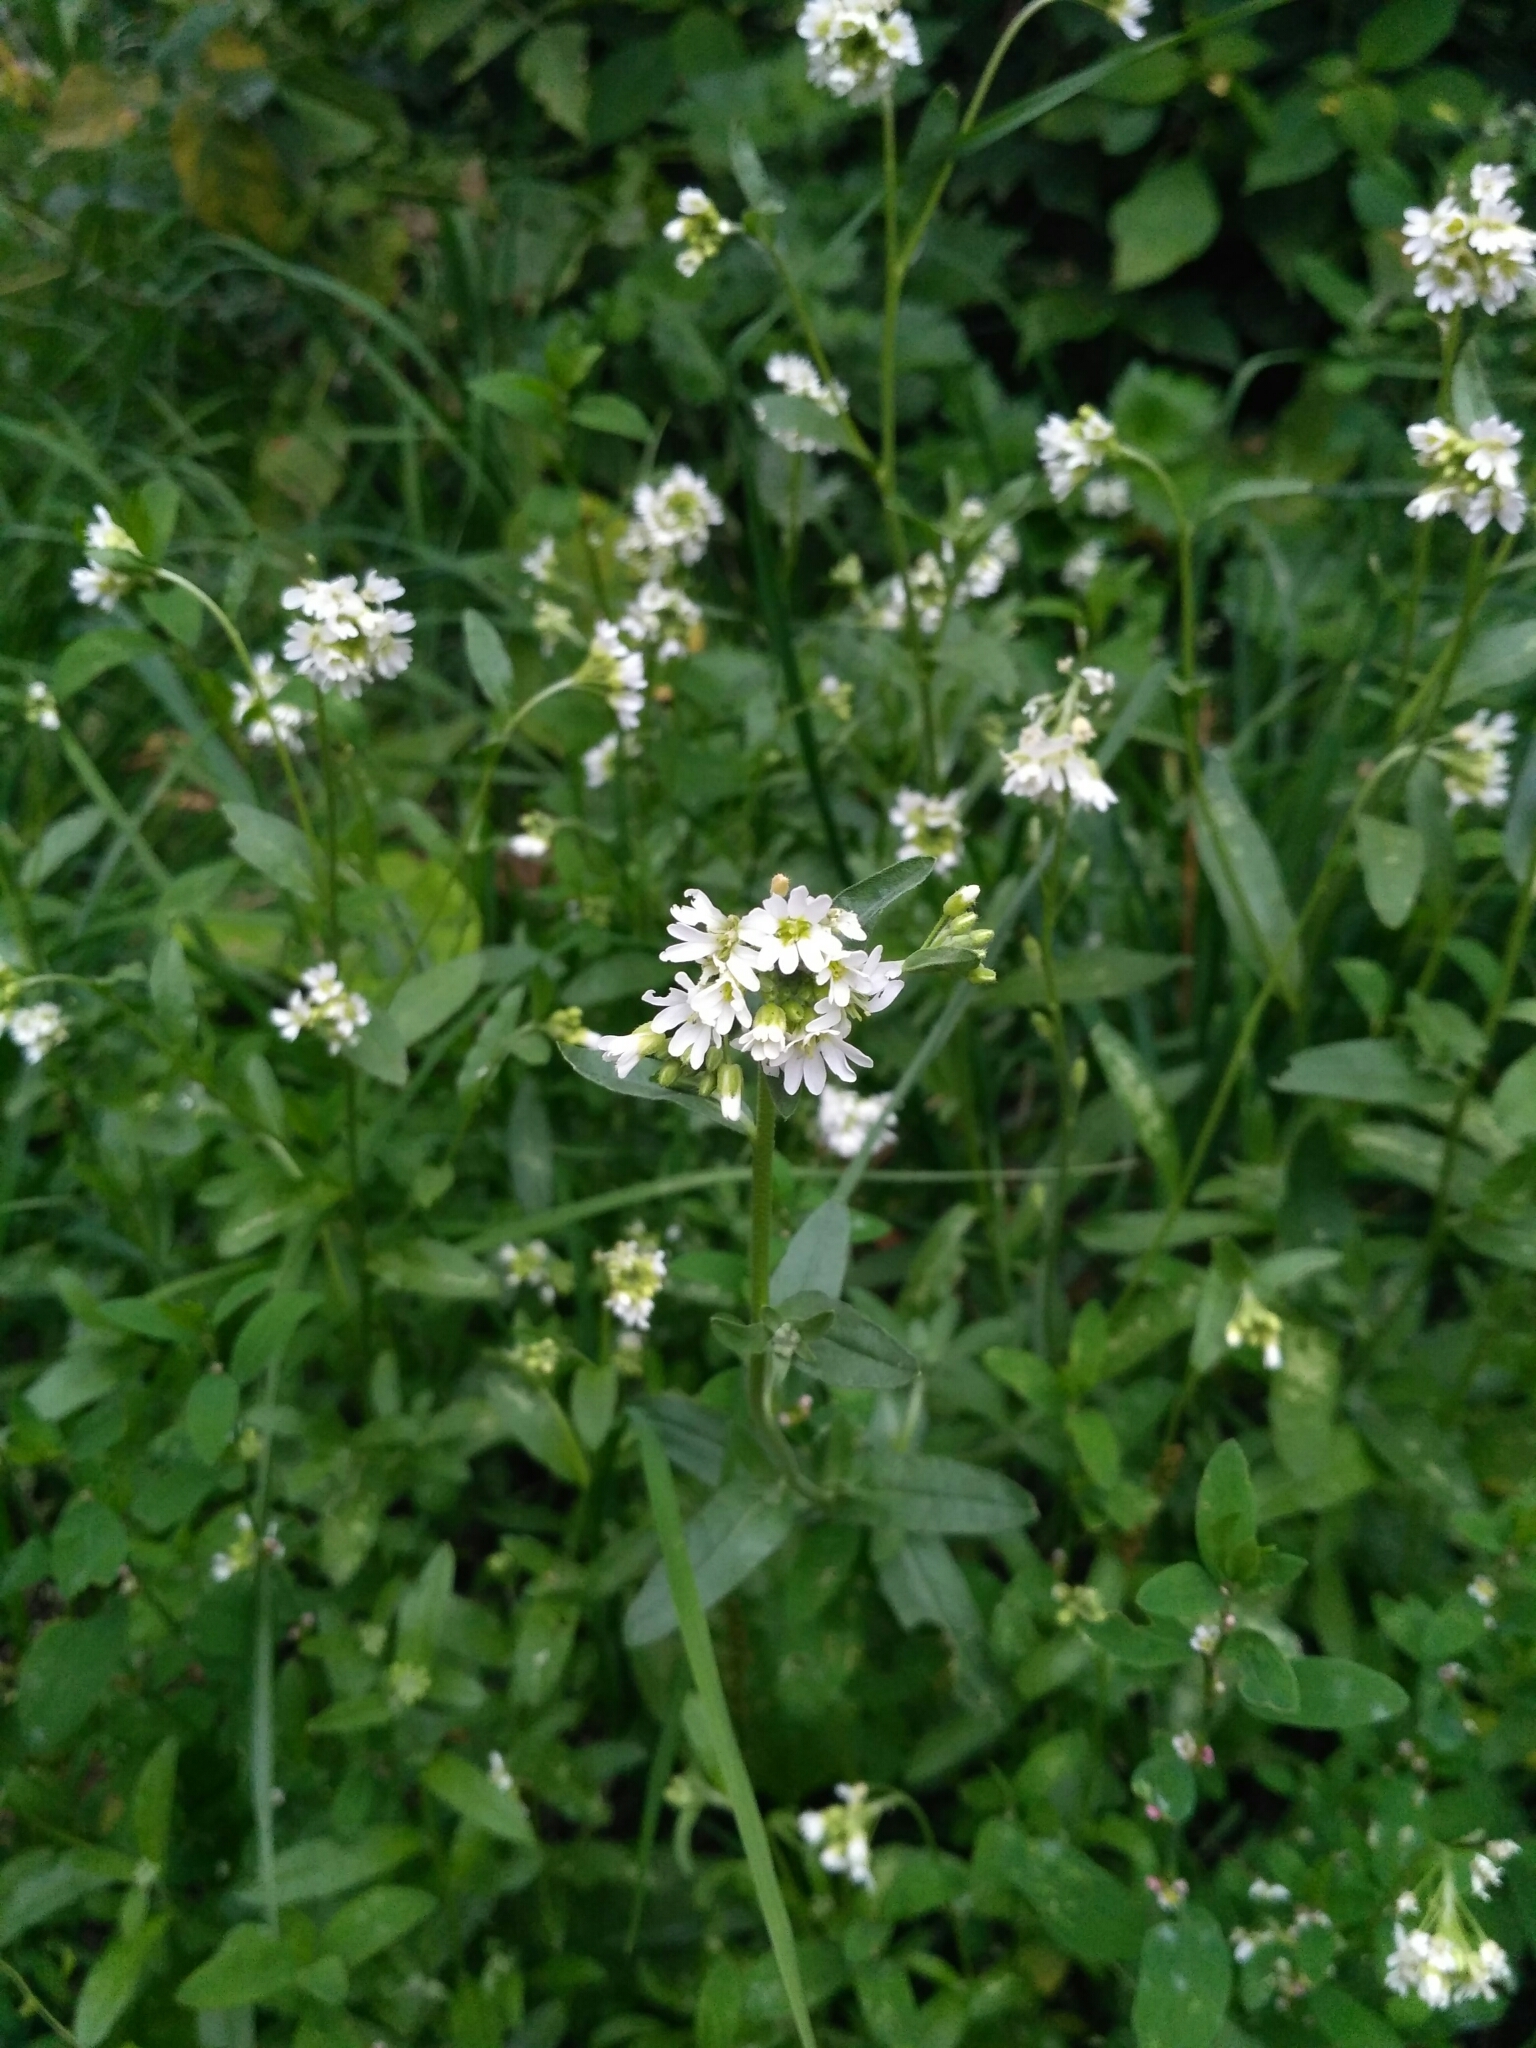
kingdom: Plantae
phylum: Tracheophyta
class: Magnoliopsida
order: Brassicales
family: Brassicaceae
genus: Berteroa
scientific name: Berteroa incana
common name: Hoary alison
